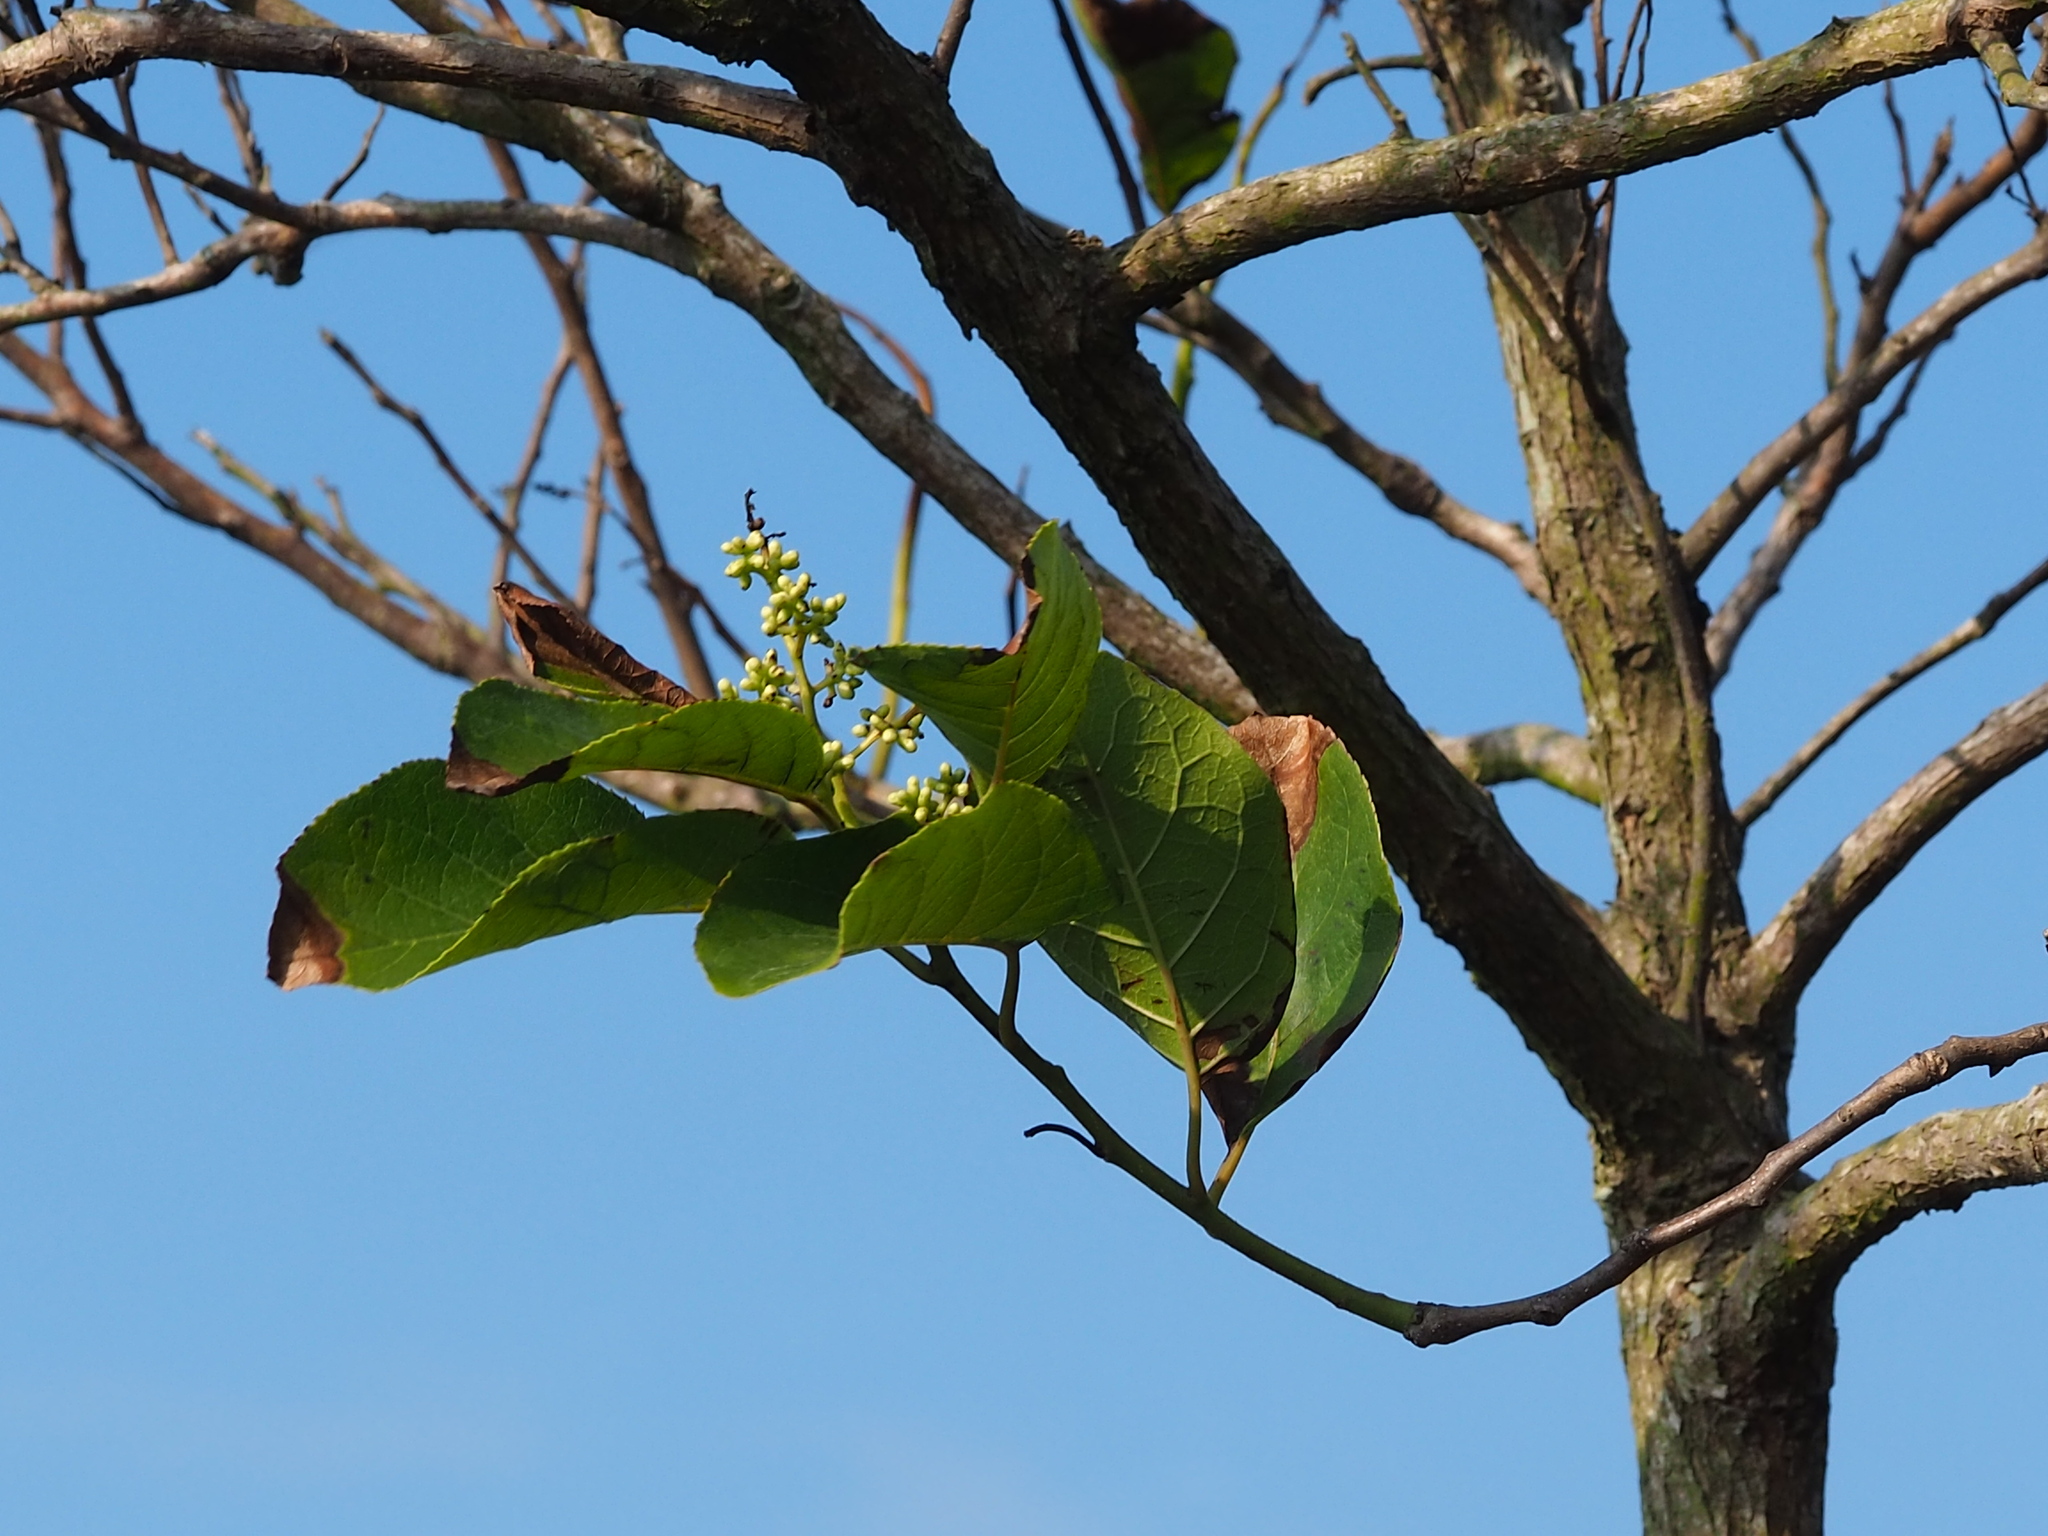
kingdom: Plantae
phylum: Tracheophyta
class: Magnoliopsida
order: Boraginales
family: Ehretiaceae
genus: Ehretia
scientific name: Ehretia acuminata
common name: Kodo wood
